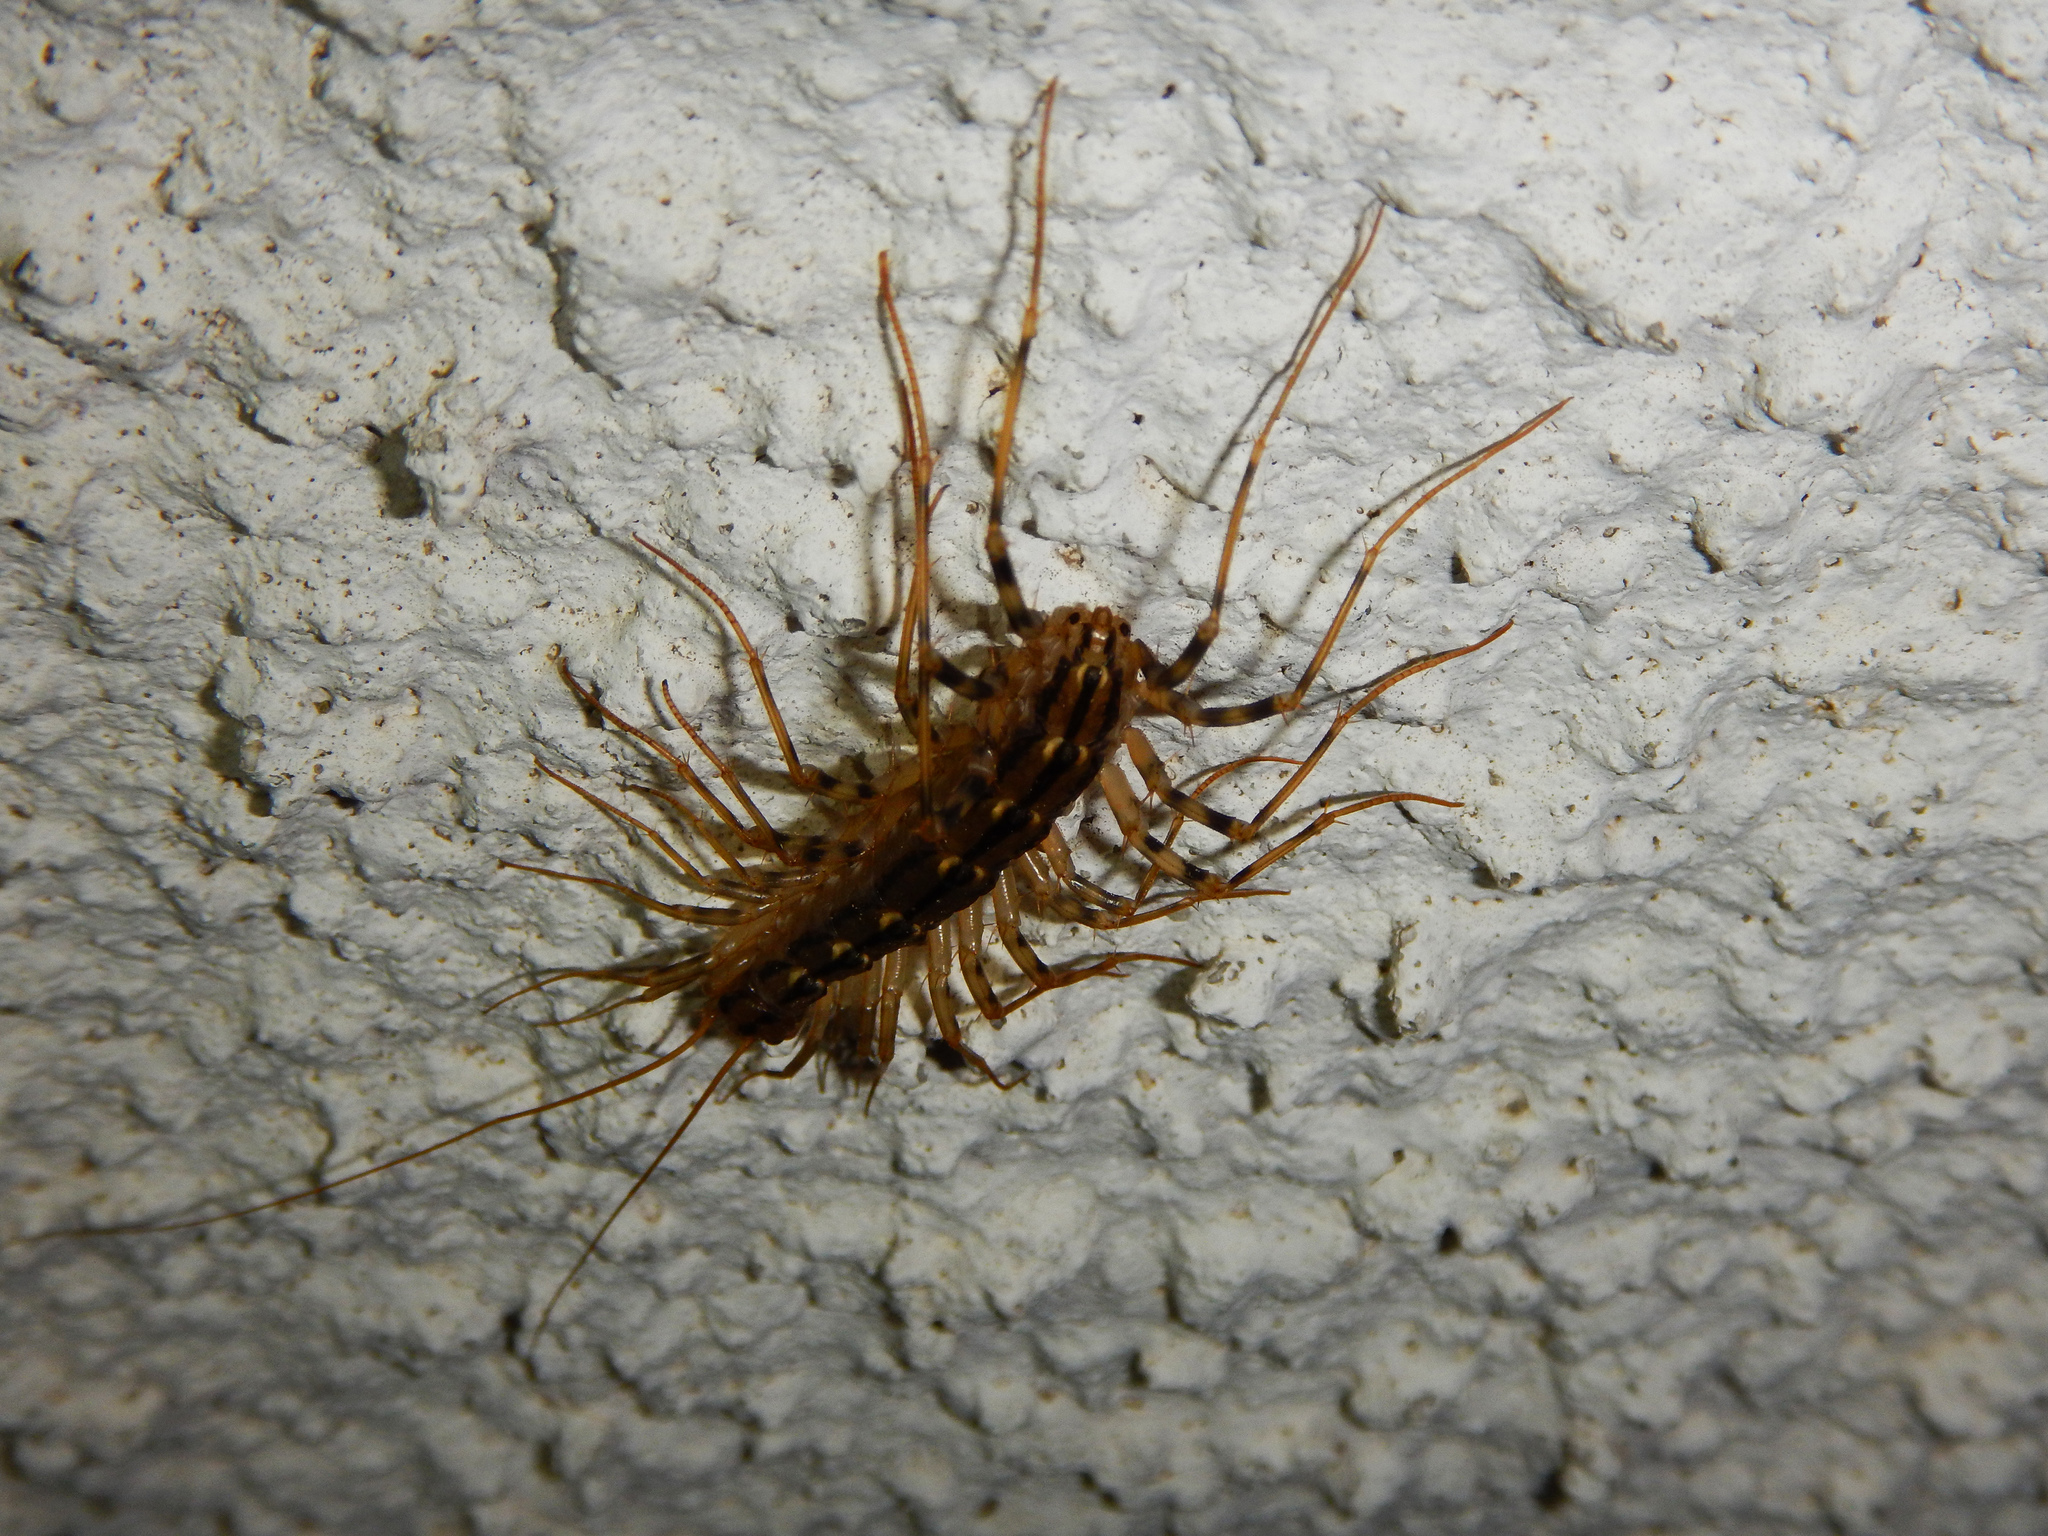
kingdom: Animalia
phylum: Arthropoda
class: Chilopoda
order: Scutigeromorpha
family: Scutigeridae
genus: Scutigera
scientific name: Scutigera coleoptrata
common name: House centipede
